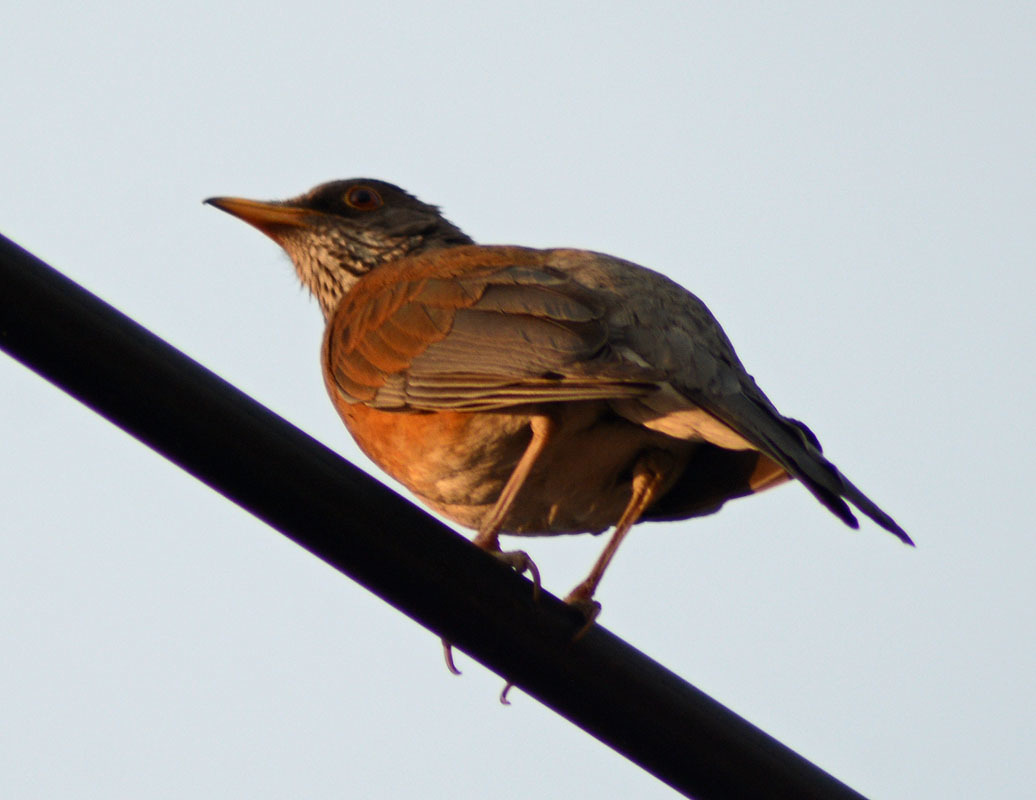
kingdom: Animalia
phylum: Chordata
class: Aves
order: Passeriformes
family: Turdidae
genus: Turdus
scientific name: Turdus rufopalliatus
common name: Rufous-backed robin
